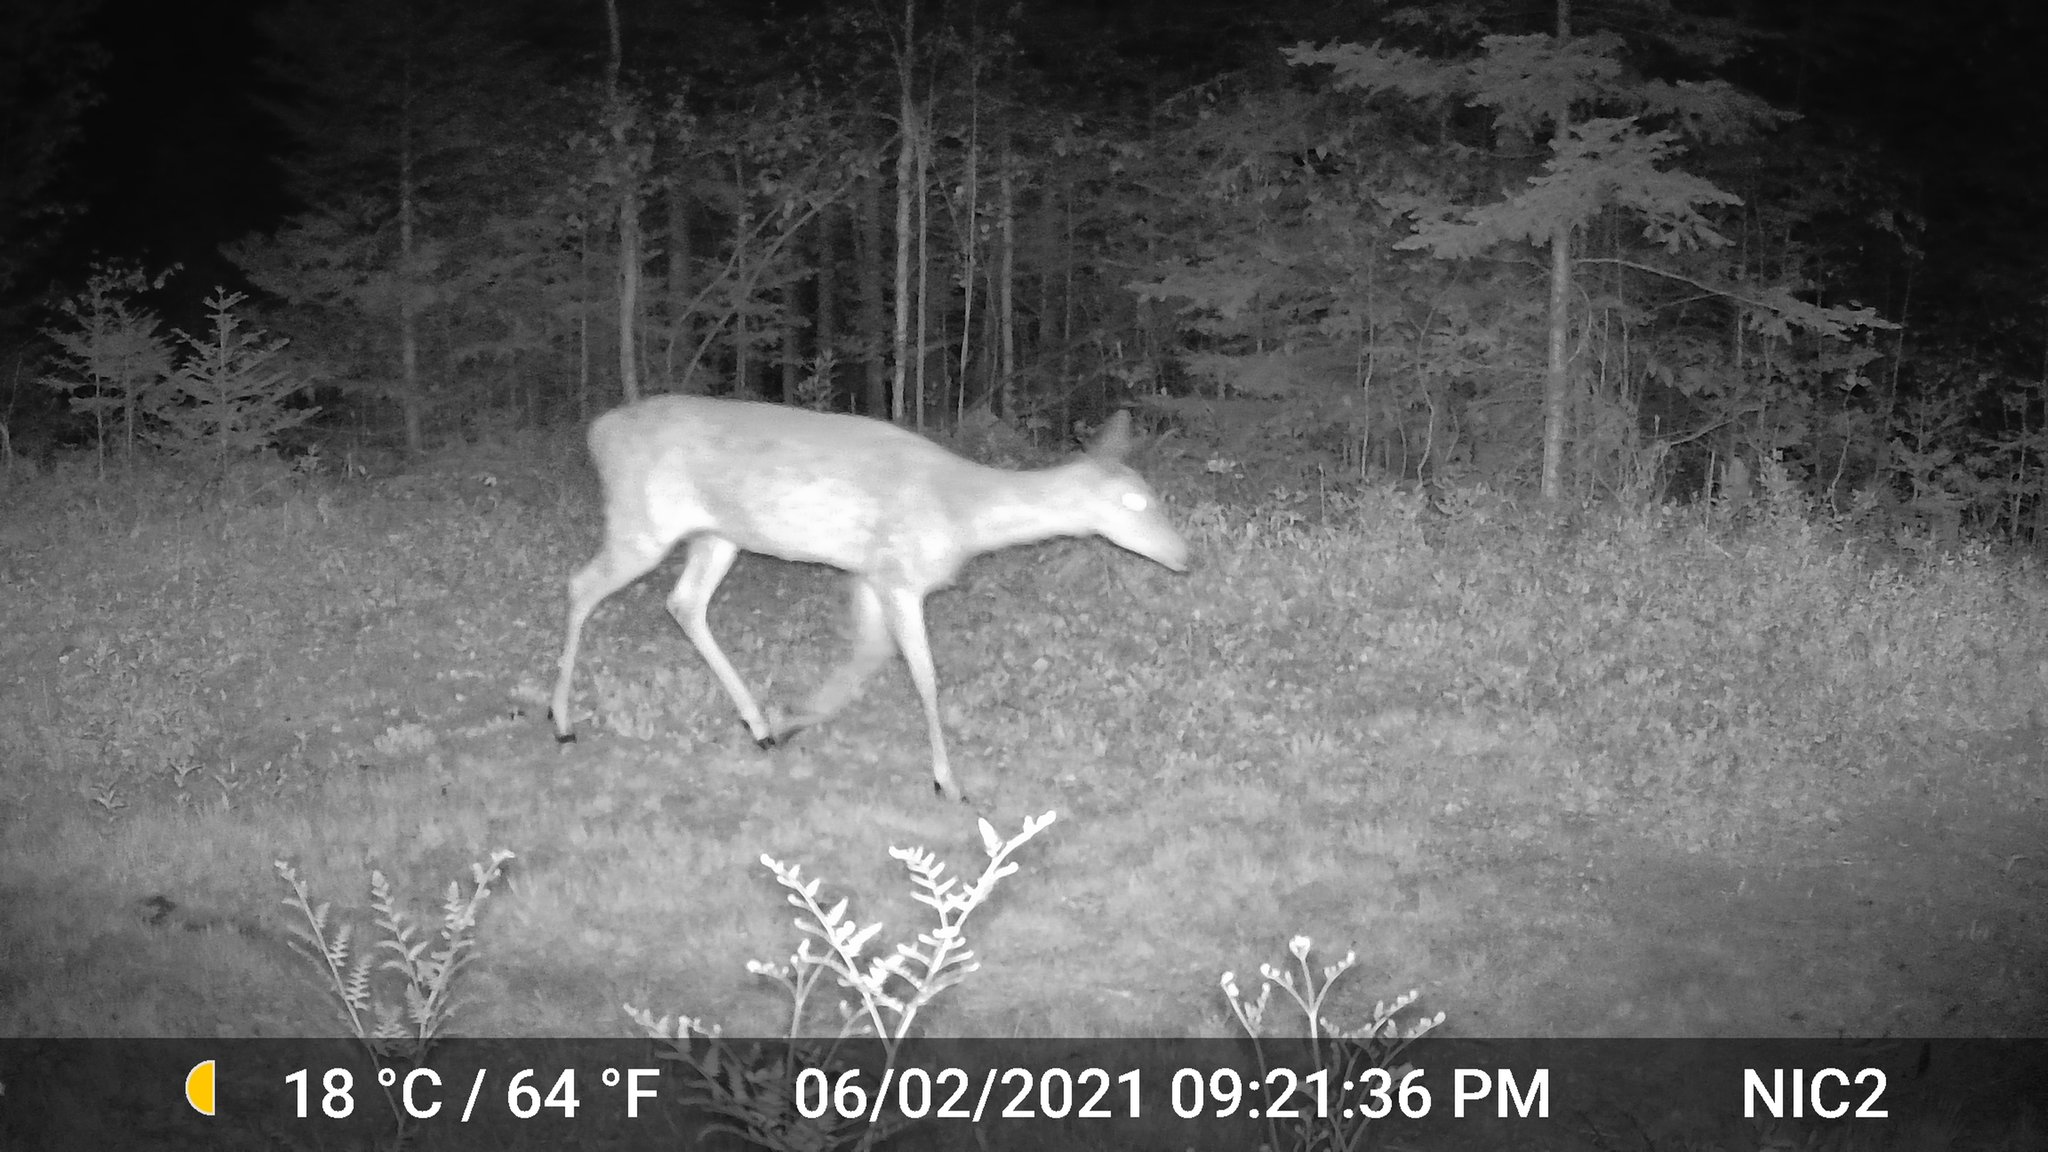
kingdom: Animalia
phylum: Chordata
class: Mammalia
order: Artiodactyla
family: Cervidae
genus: Odocoileus
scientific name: Odocoileus virginianus
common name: White-tailed deer
